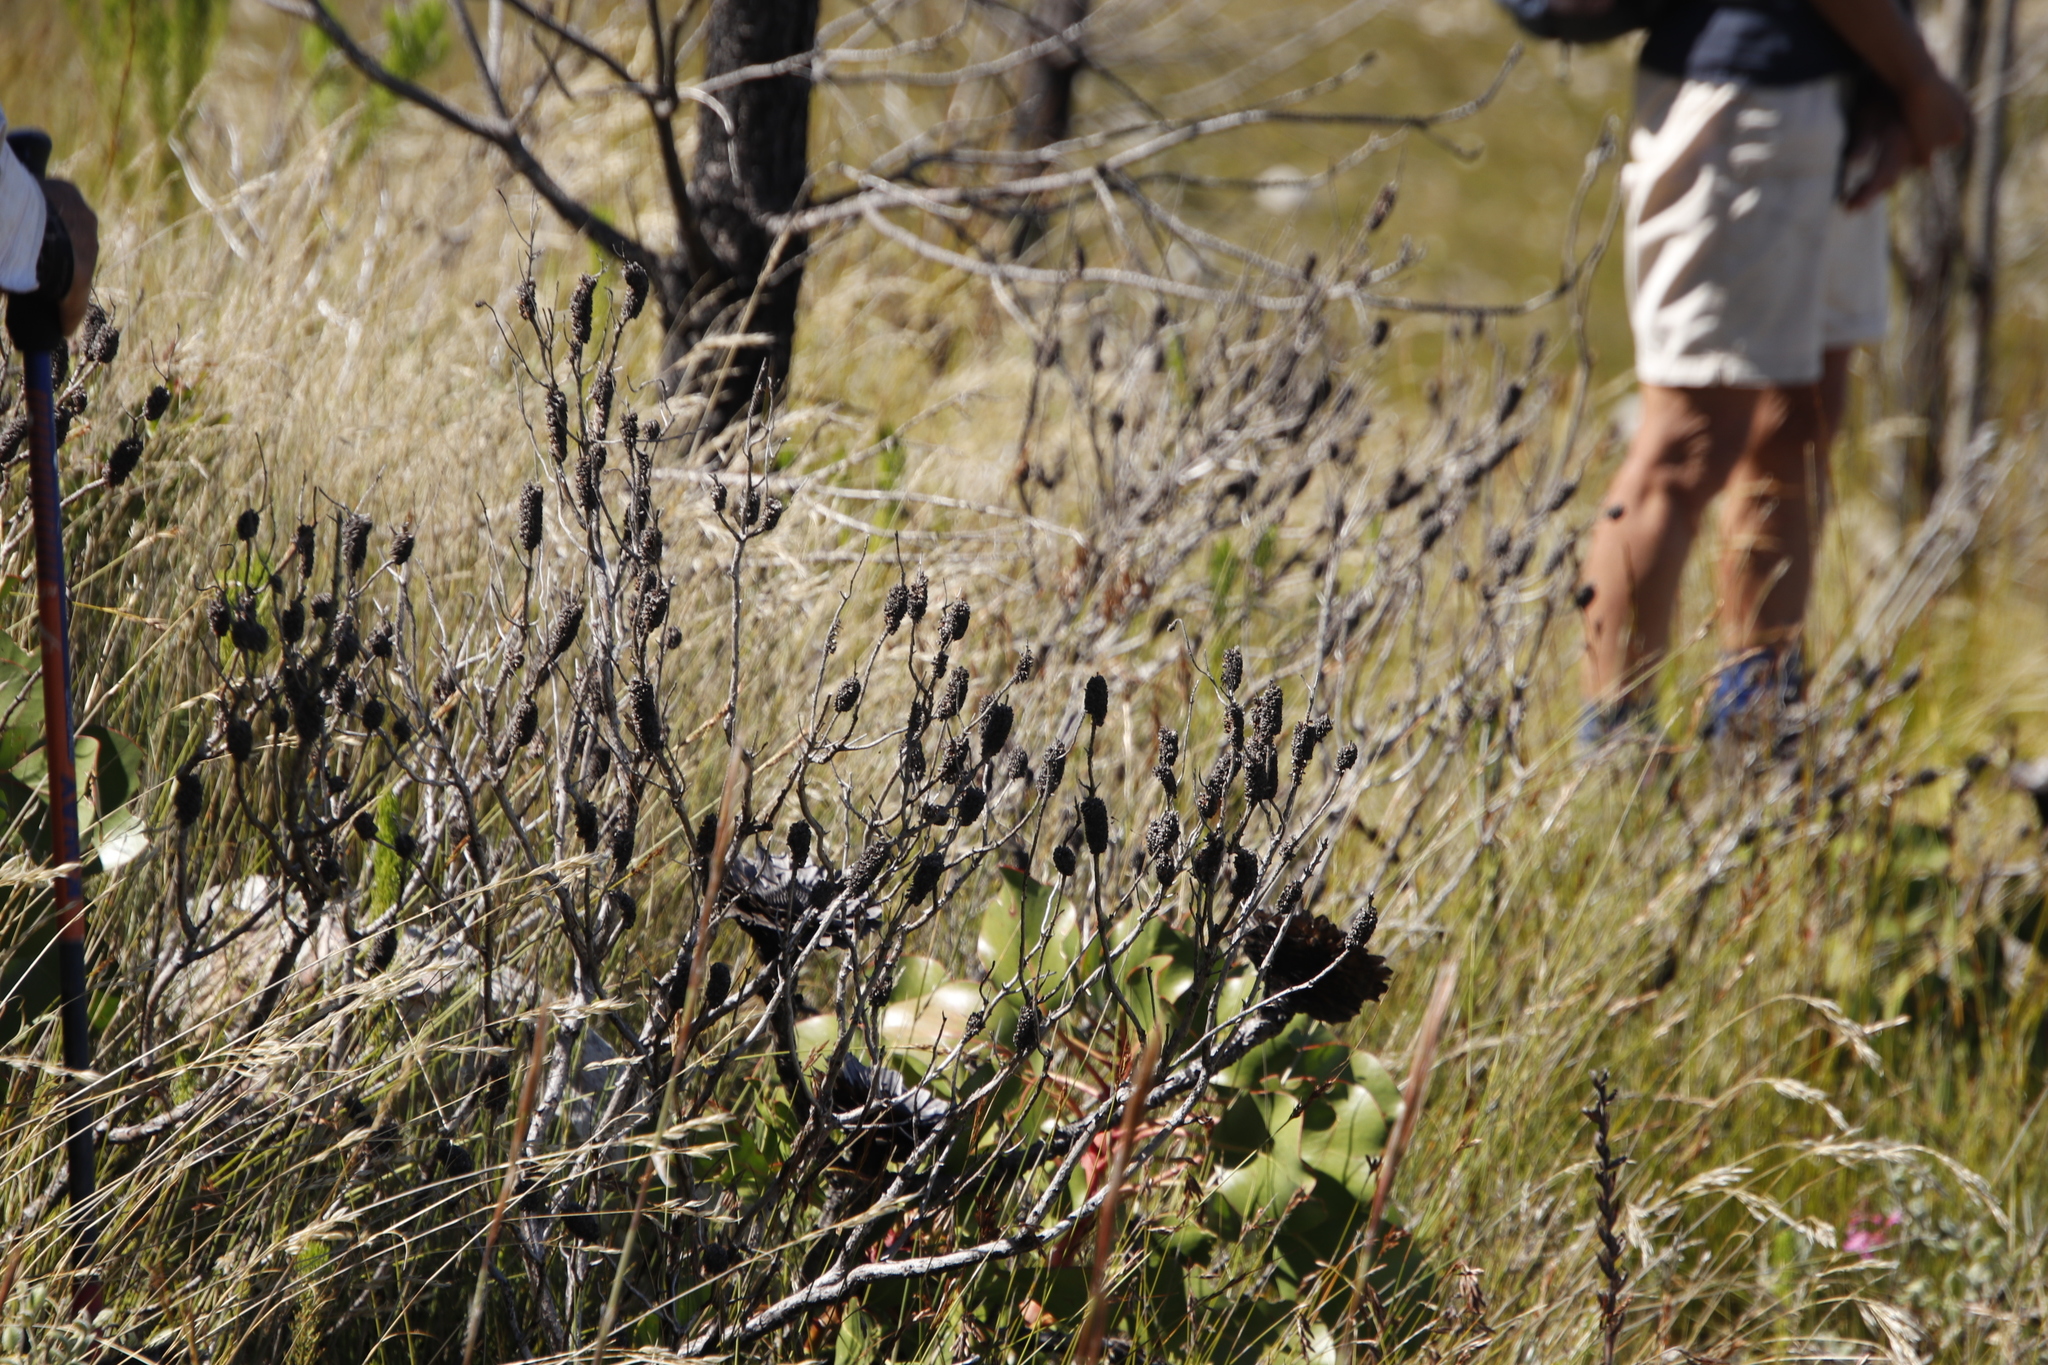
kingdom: Plantae
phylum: Tracheophyta
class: Magnoliopsida
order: Ericales
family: Ericaceae
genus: Erica
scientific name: Erica sessiliflora
